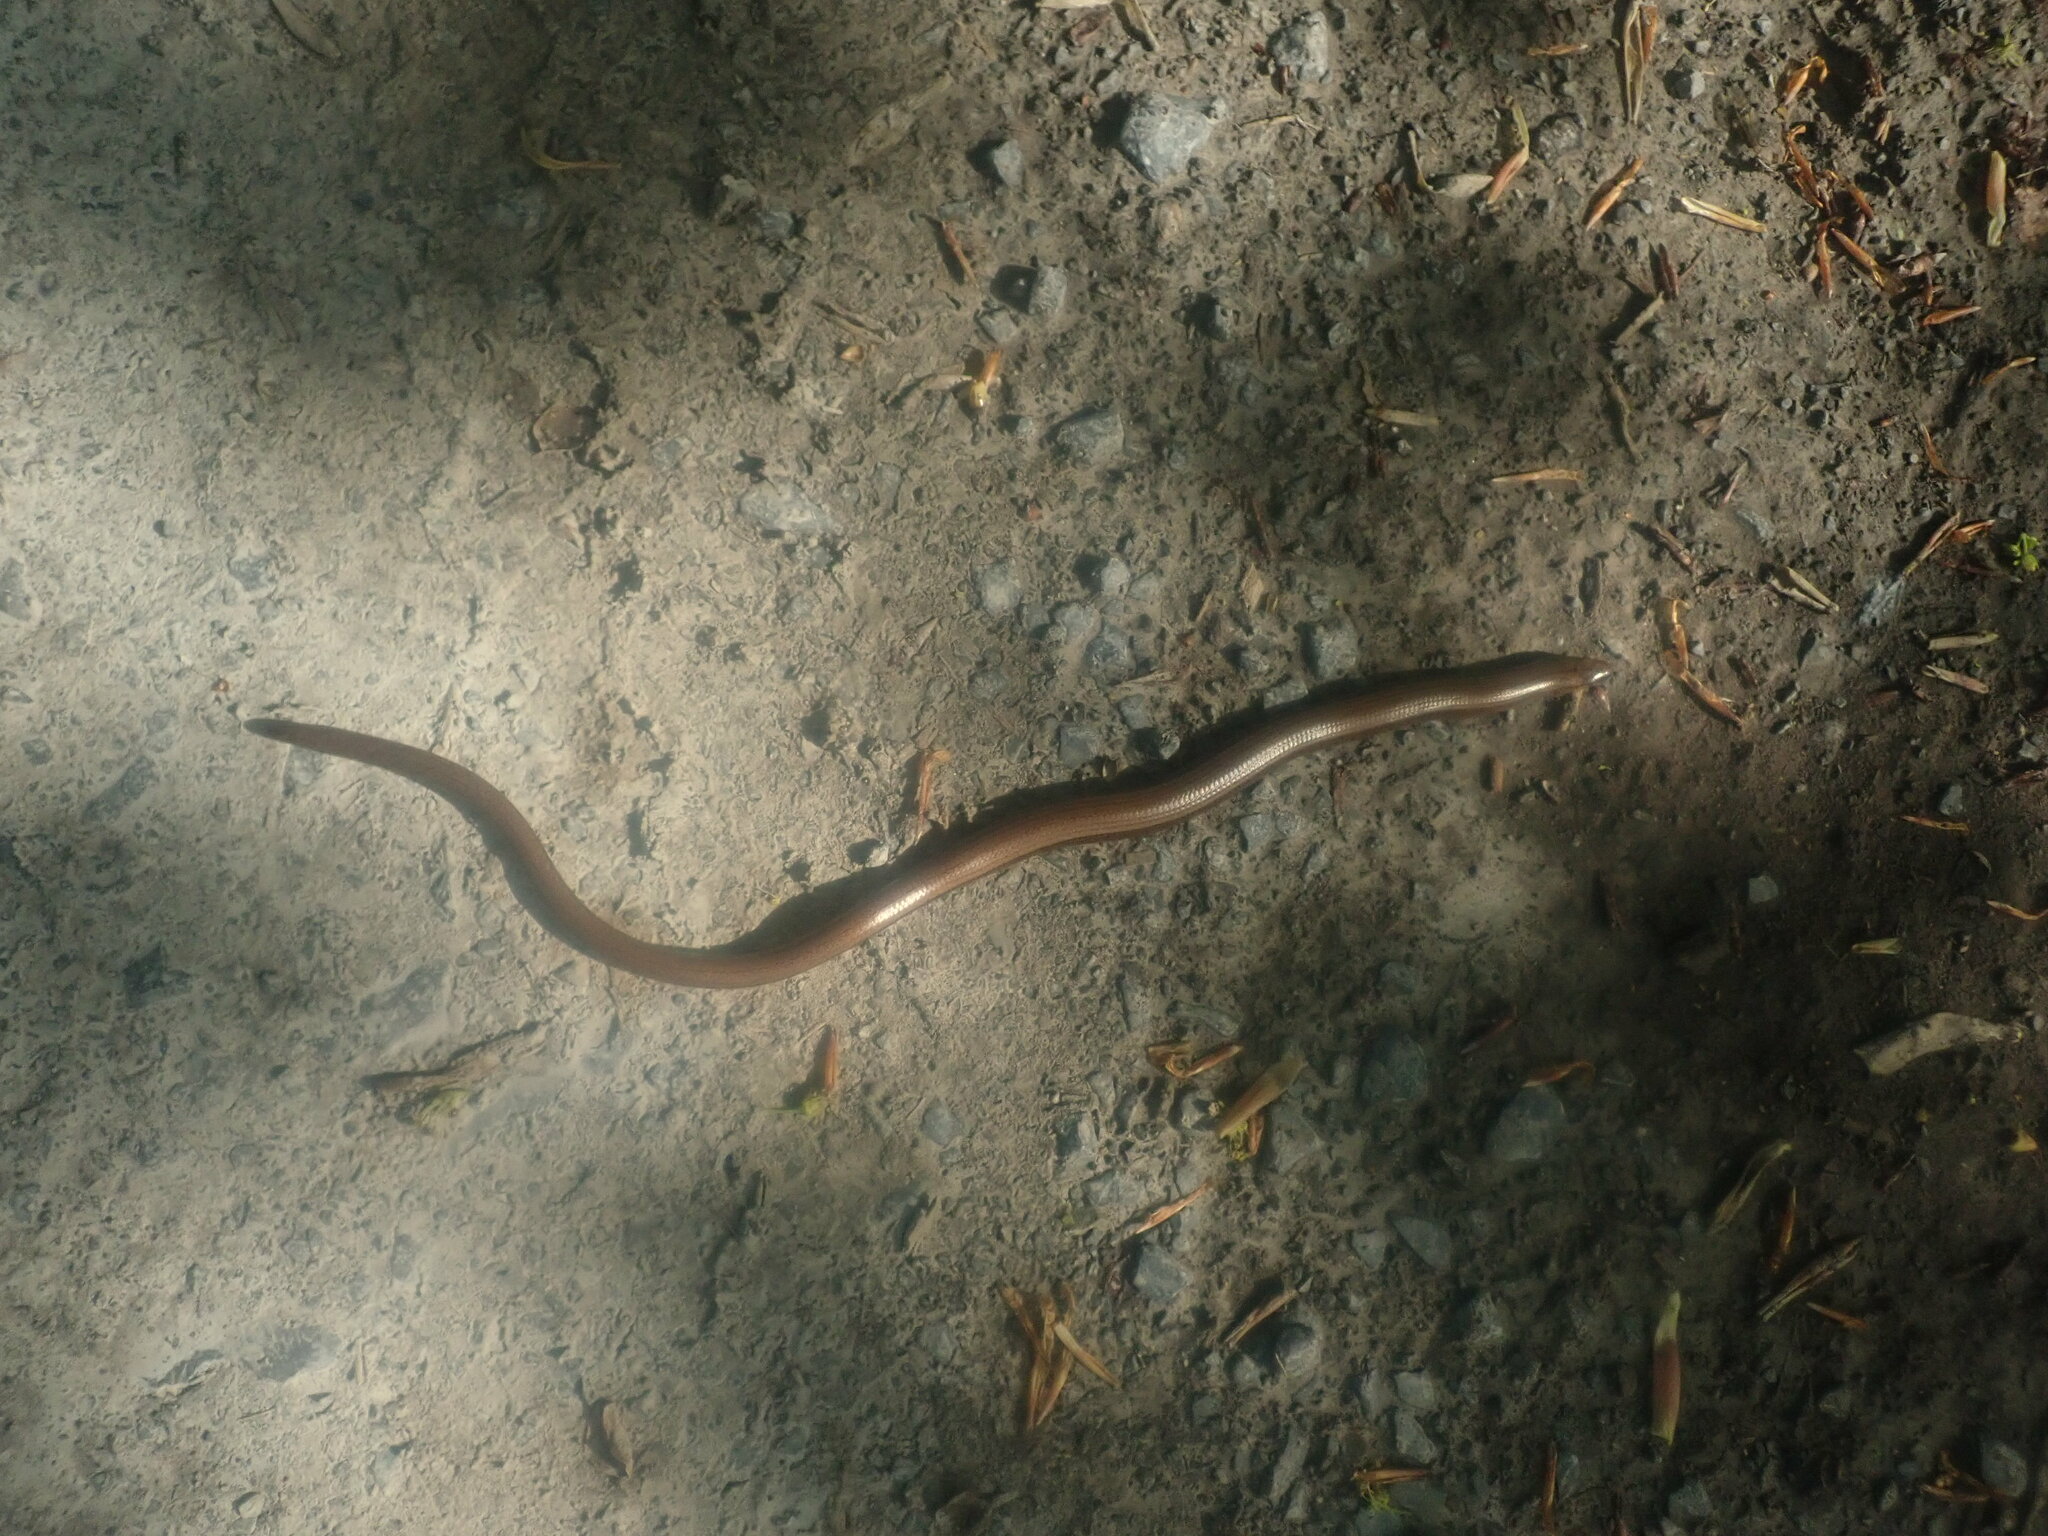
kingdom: Animalia
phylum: Chordata
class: Squamata
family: Anguidae
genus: Anguis
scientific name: Anguis fragilis
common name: Slow worm
